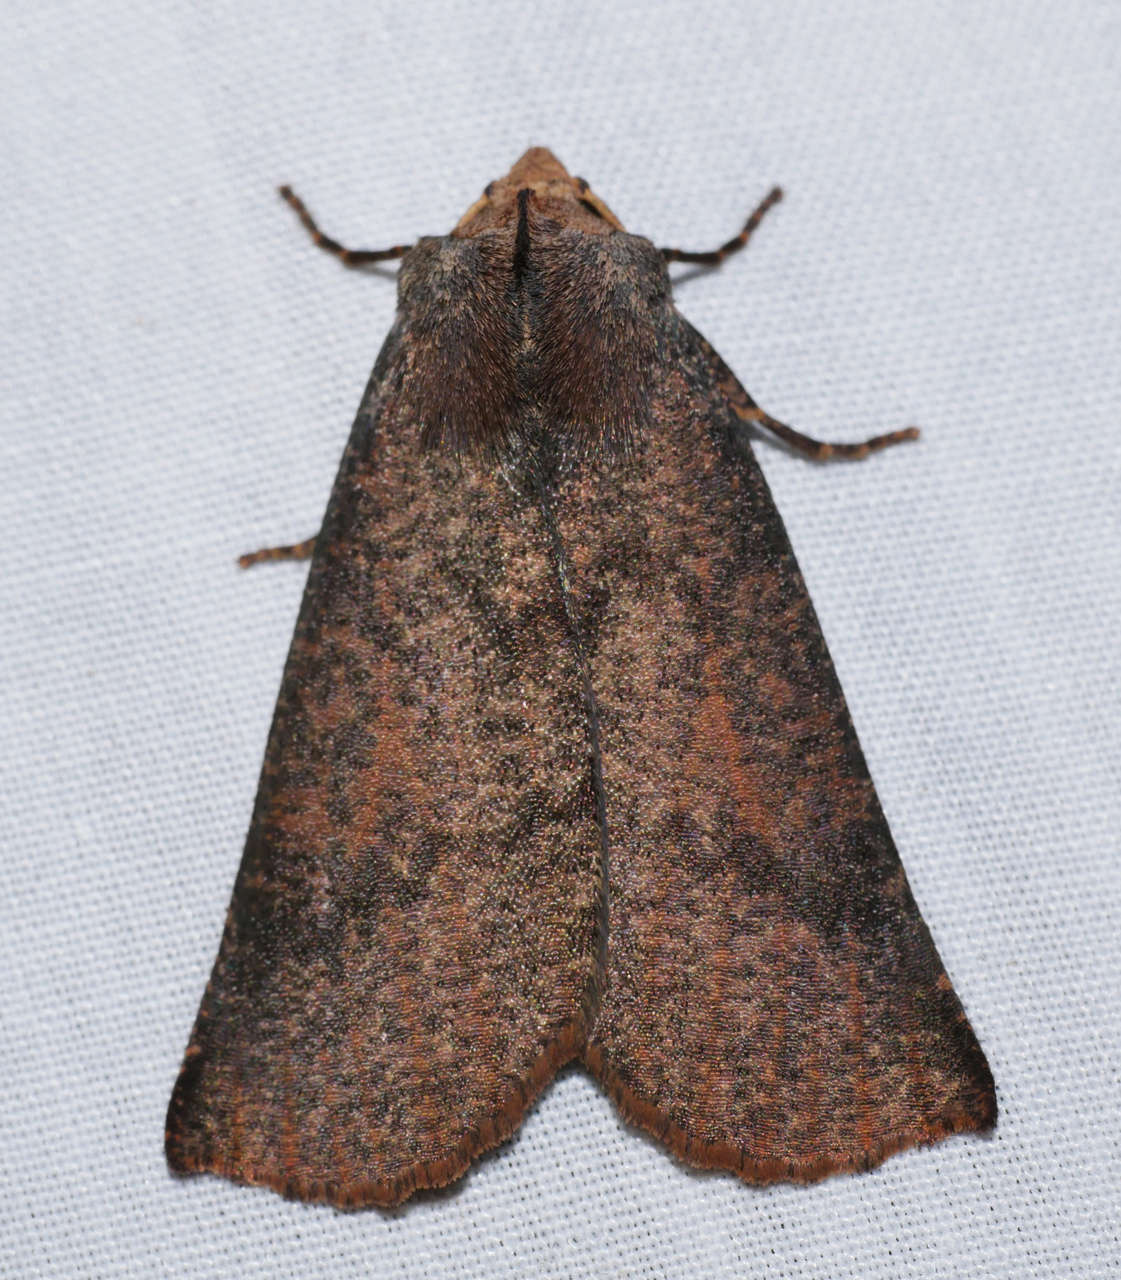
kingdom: Animalia
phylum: Arthropoda
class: Insecta
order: Lepidoptera
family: Geometridae
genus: Fisera
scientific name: Fisera eribola
